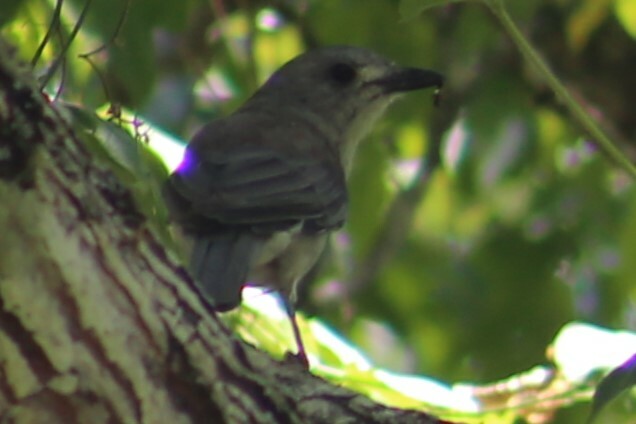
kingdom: Animalia
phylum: Chordata
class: Aves
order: Passeriformes
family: Pachycephalidae
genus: Colluricincla
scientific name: Colluricincla harmonica
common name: Grey shrikethrush
